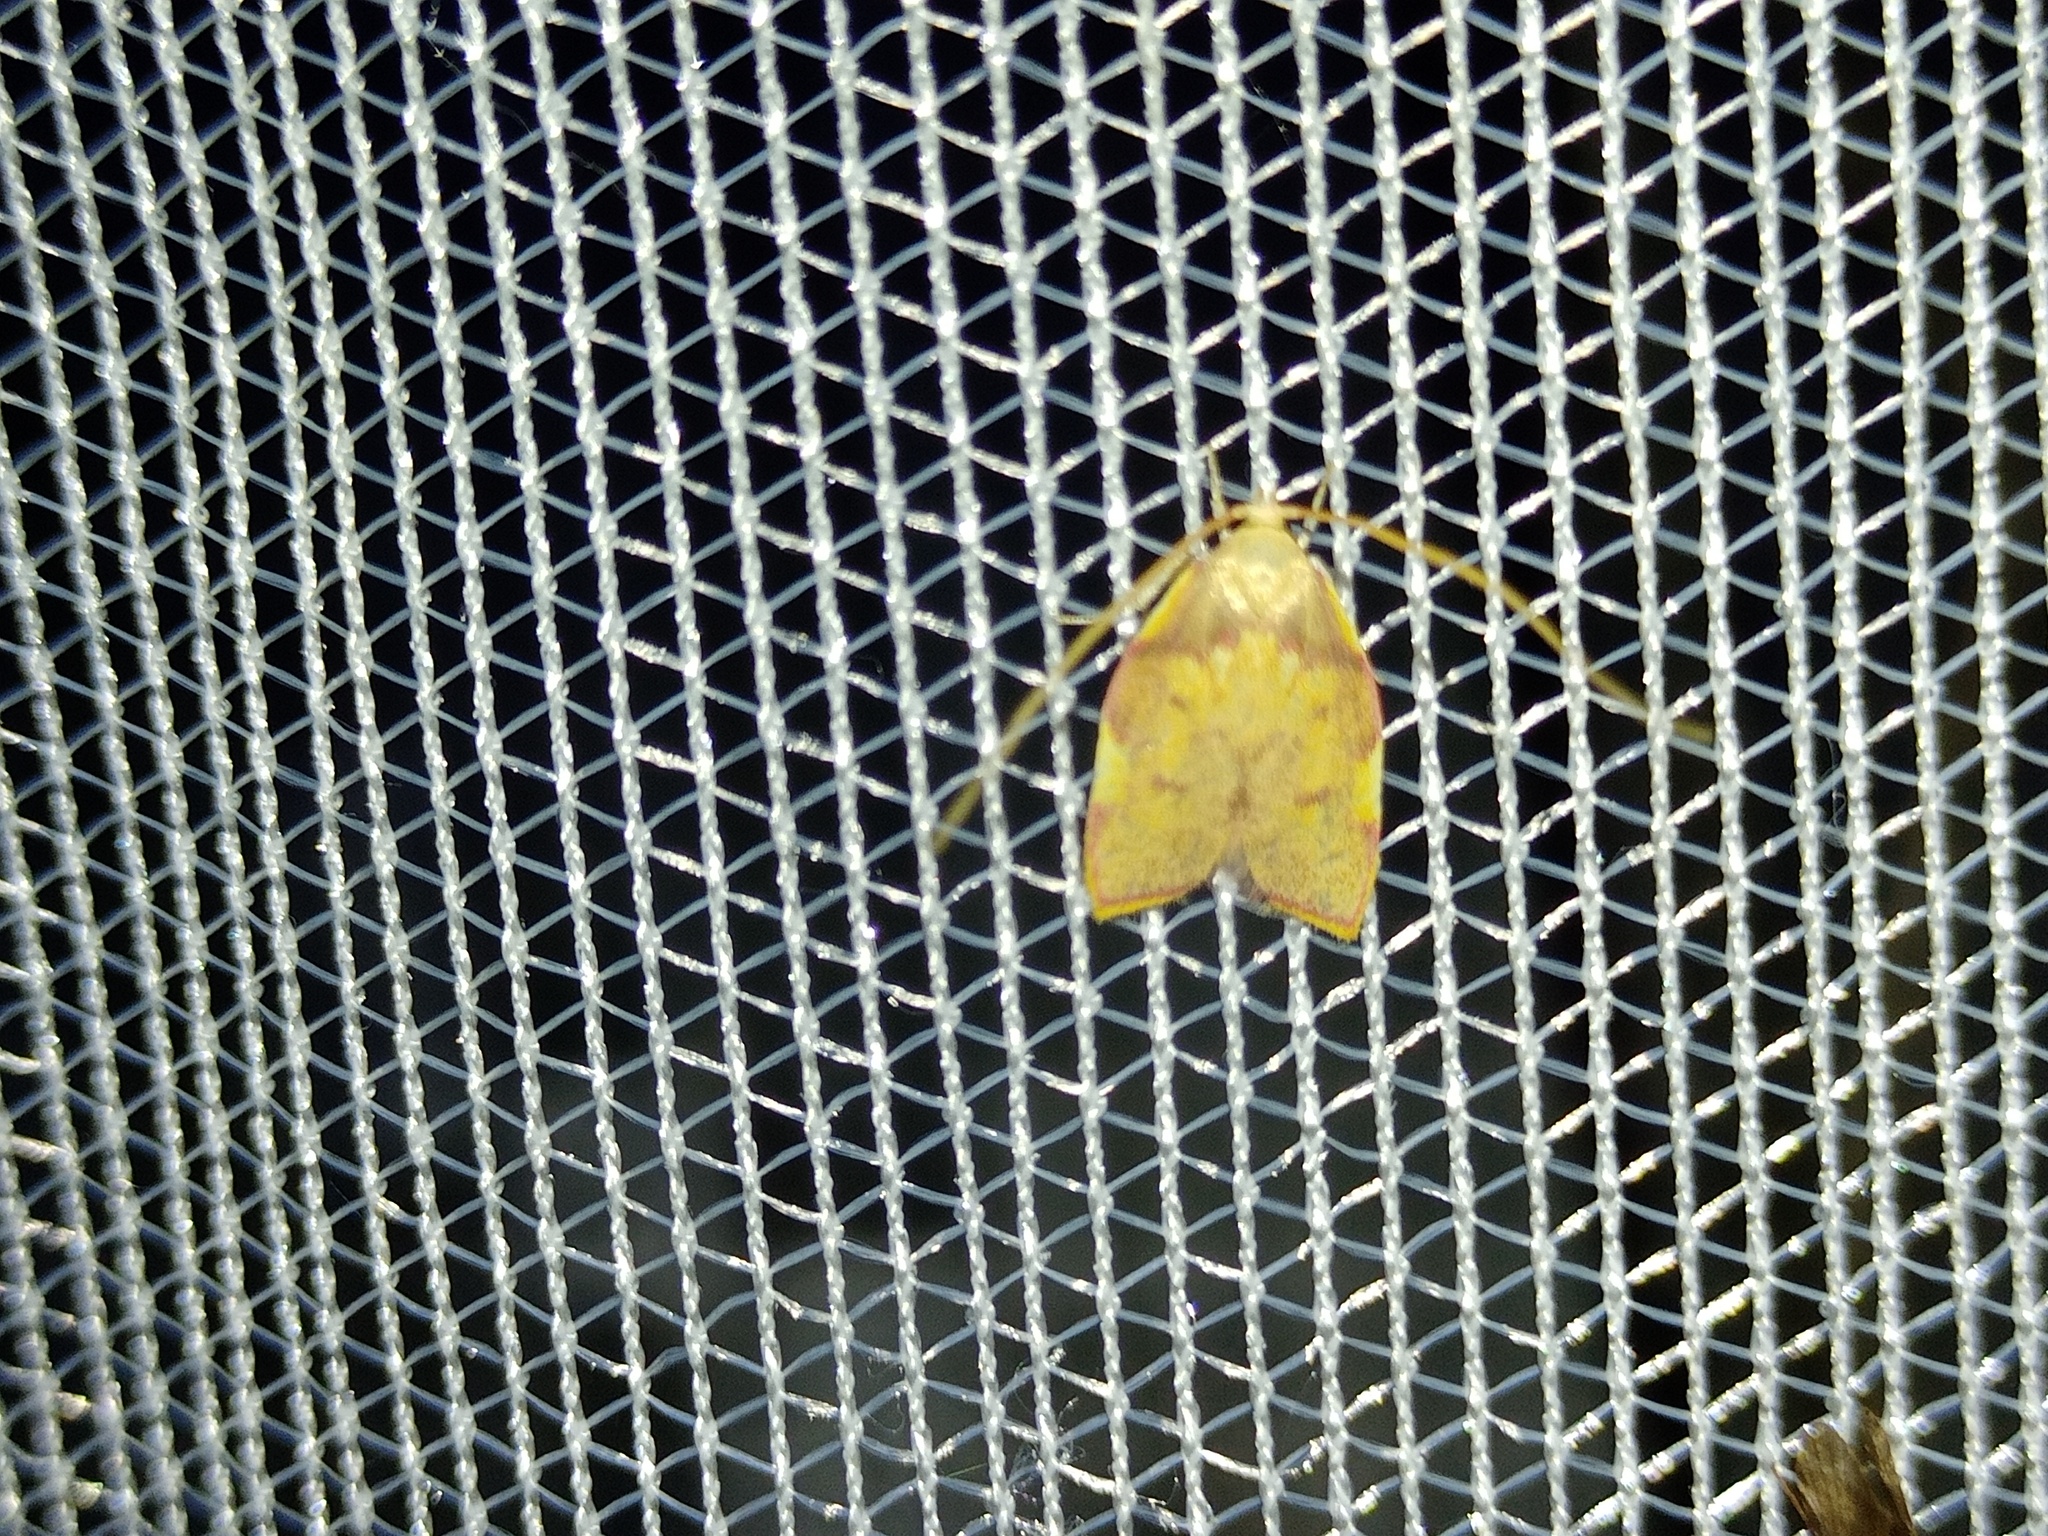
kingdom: Animalia
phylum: Arthropoda
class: Insecta
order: Lepidoptera
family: Peleopodidae
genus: Carcina
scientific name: Carcina quercana
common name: Moth
